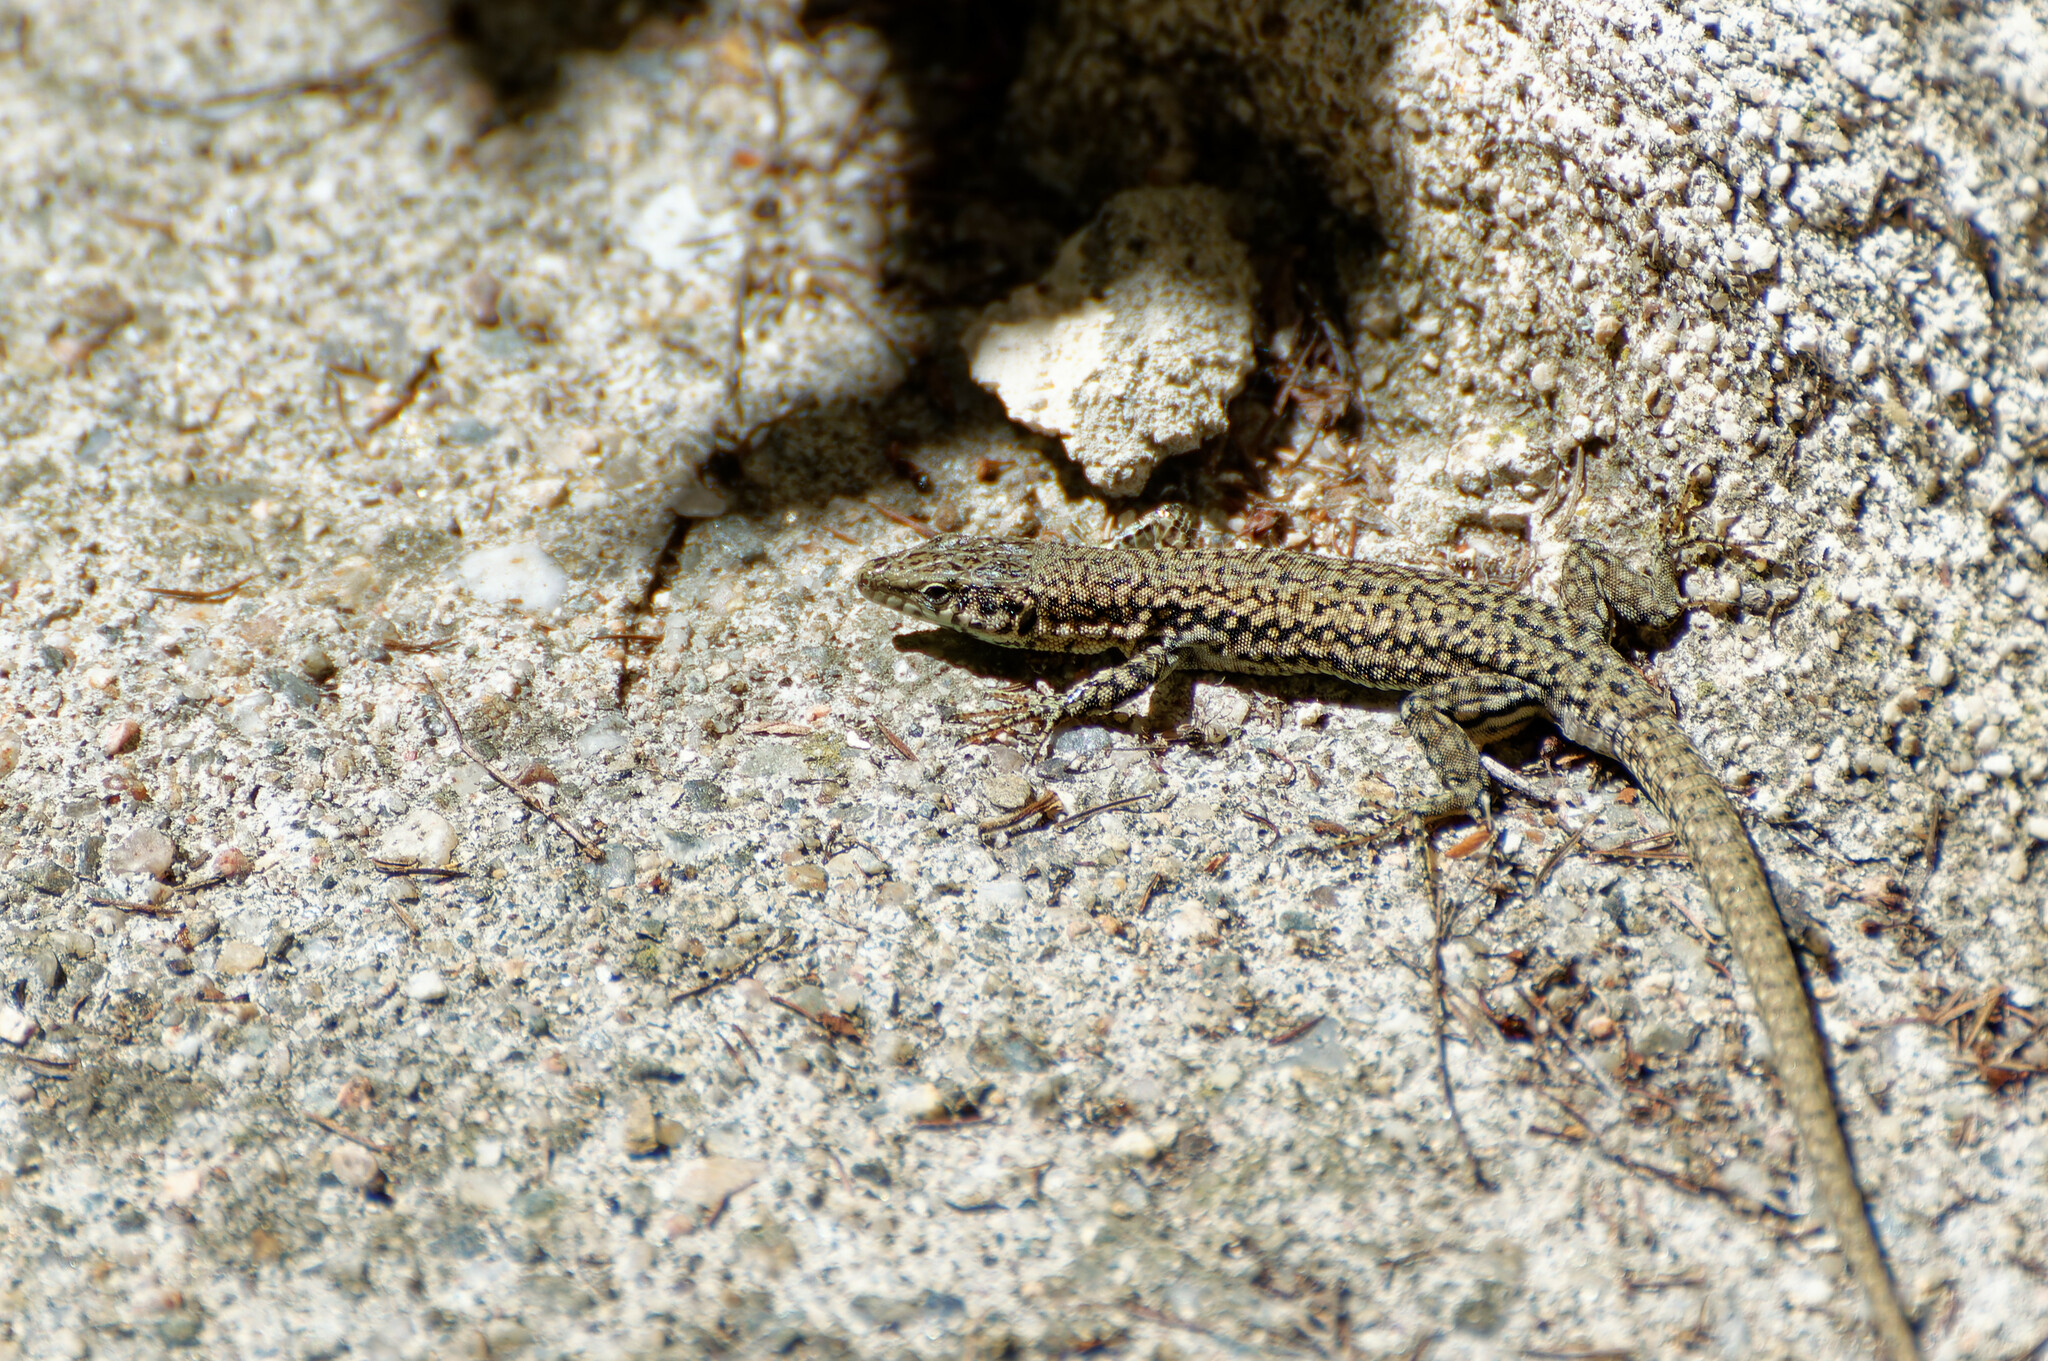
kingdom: Animalia
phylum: Chordata
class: Squamata
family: Lacertidae
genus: Podarcis
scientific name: Podarcis liolepis
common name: Catalonian wall lizard
